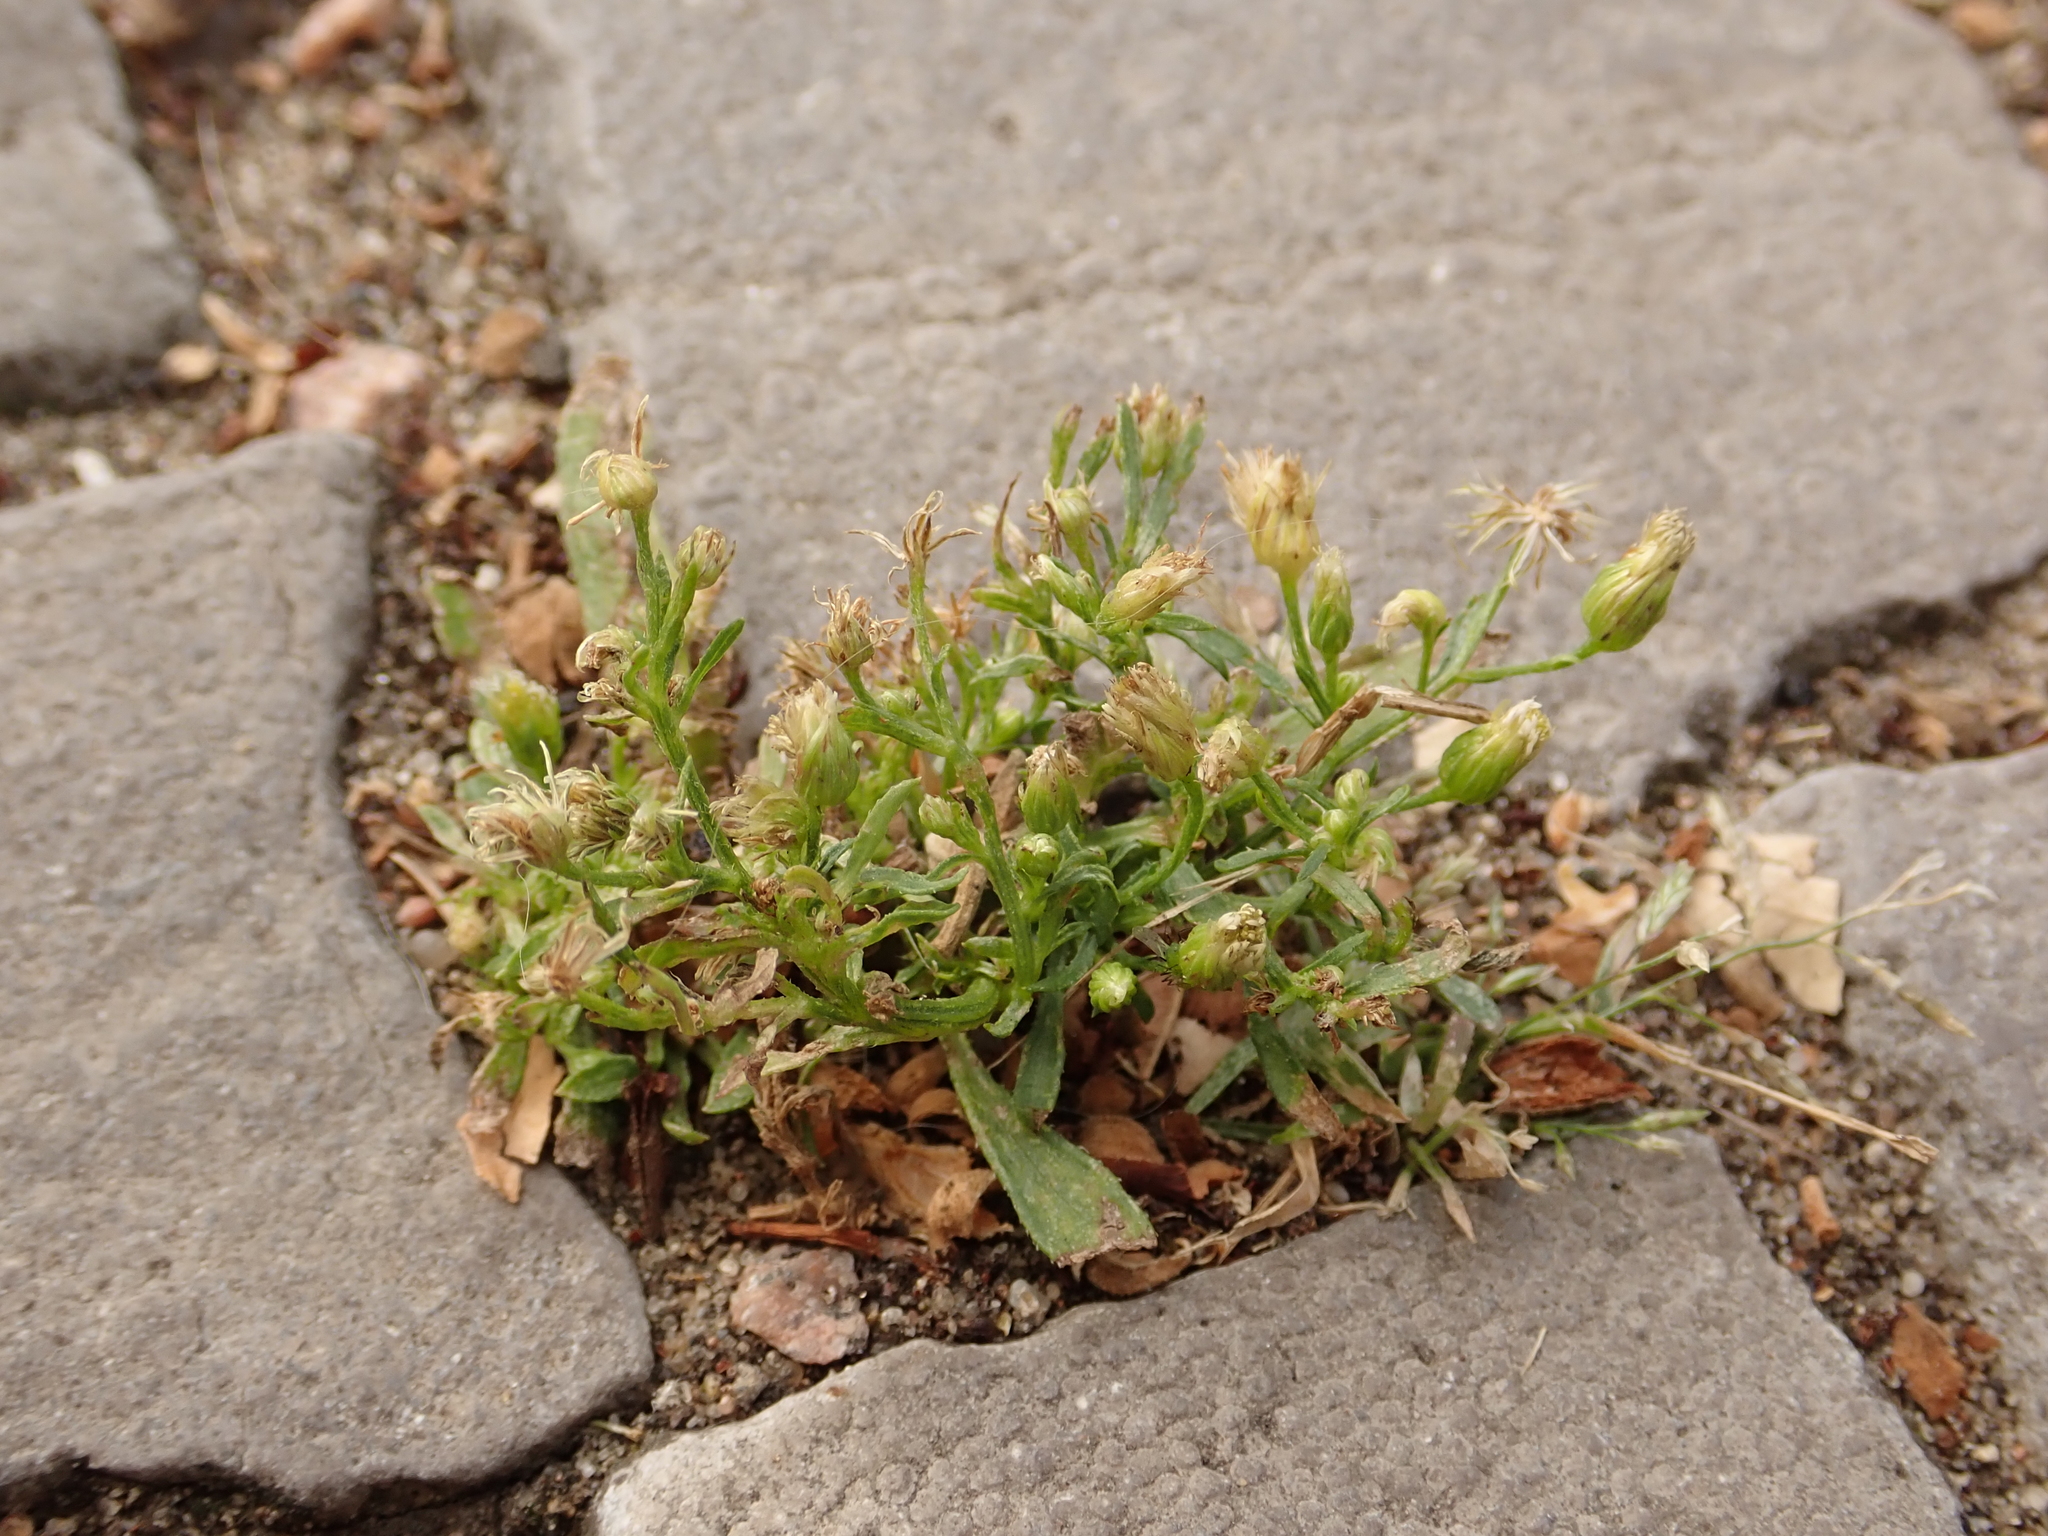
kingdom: Plantae
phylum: Tracheophyta
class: Magnoliopsida
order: Asterales
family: Asteraceae
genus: Erigeron
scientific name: Erigeron canadensis
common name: Canadian fleabane
